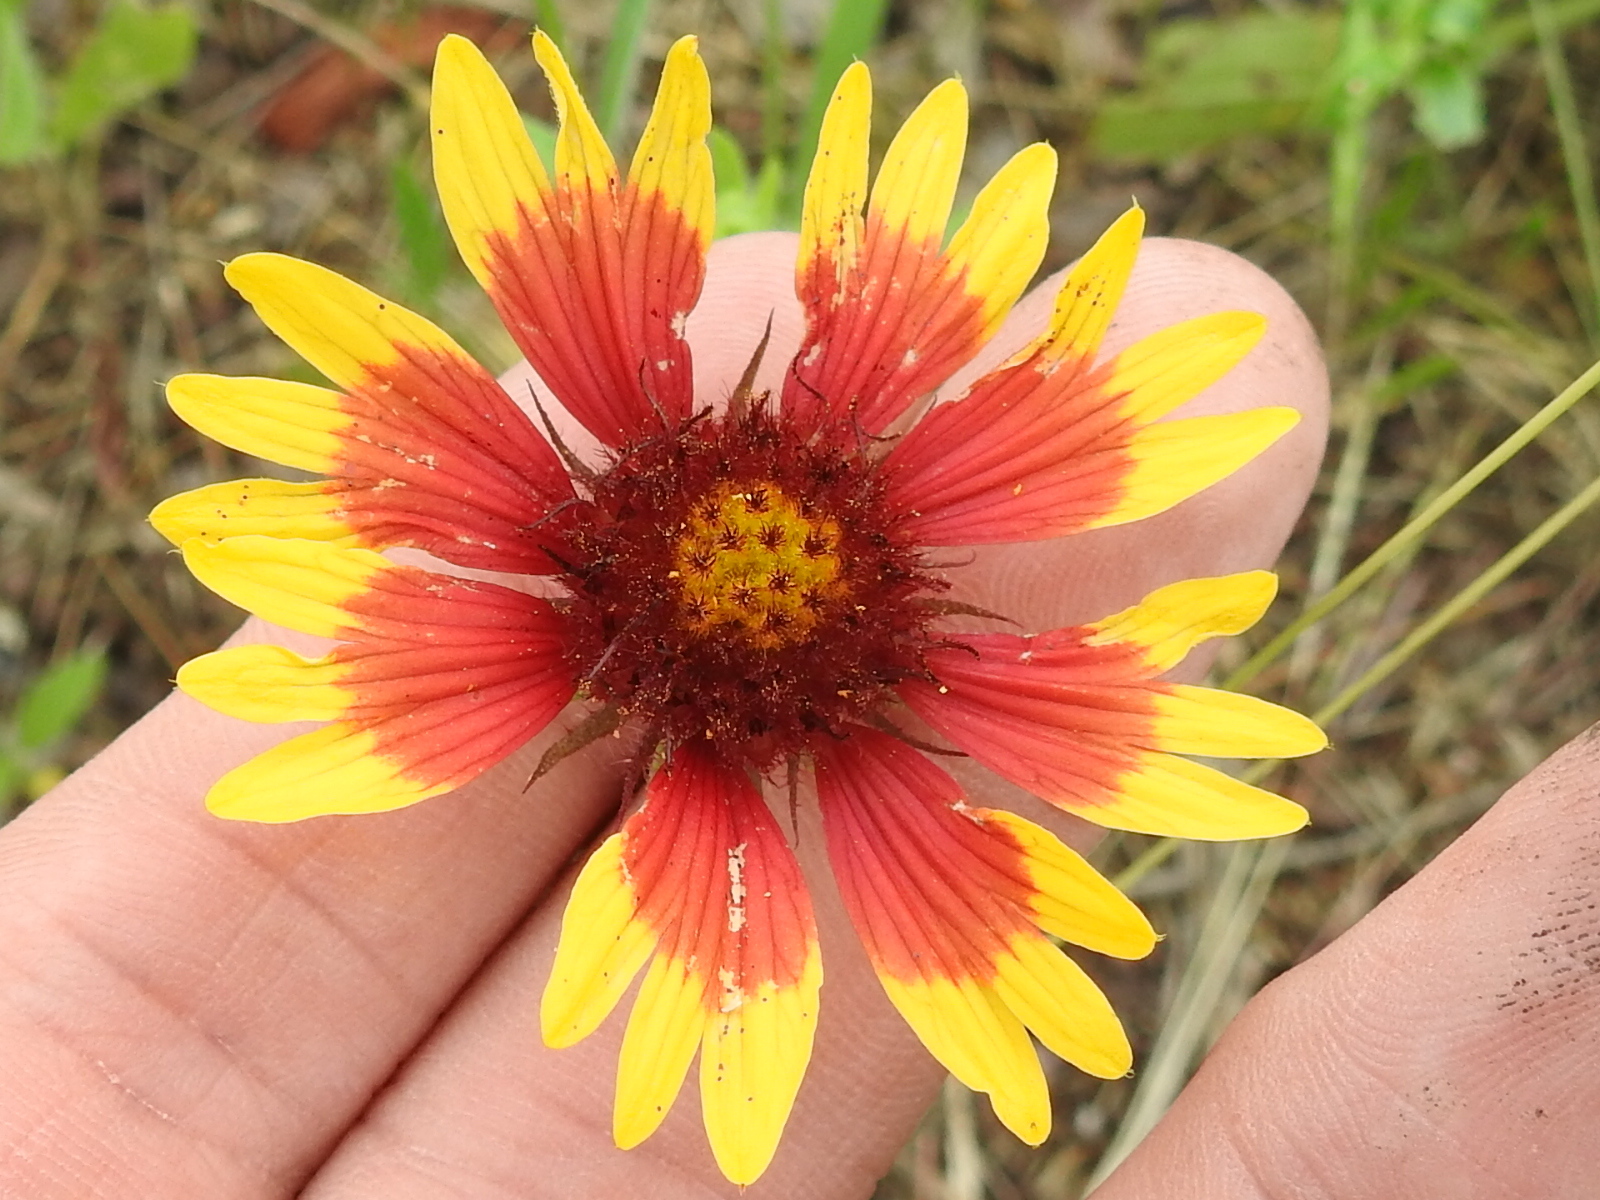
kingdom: Plantae
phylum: Tracheophyta
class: Magnoliopsida
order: Asterales
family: Asteraceae
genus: Gaillardia
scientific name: Gaillardia pulchella
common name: Firewheel
